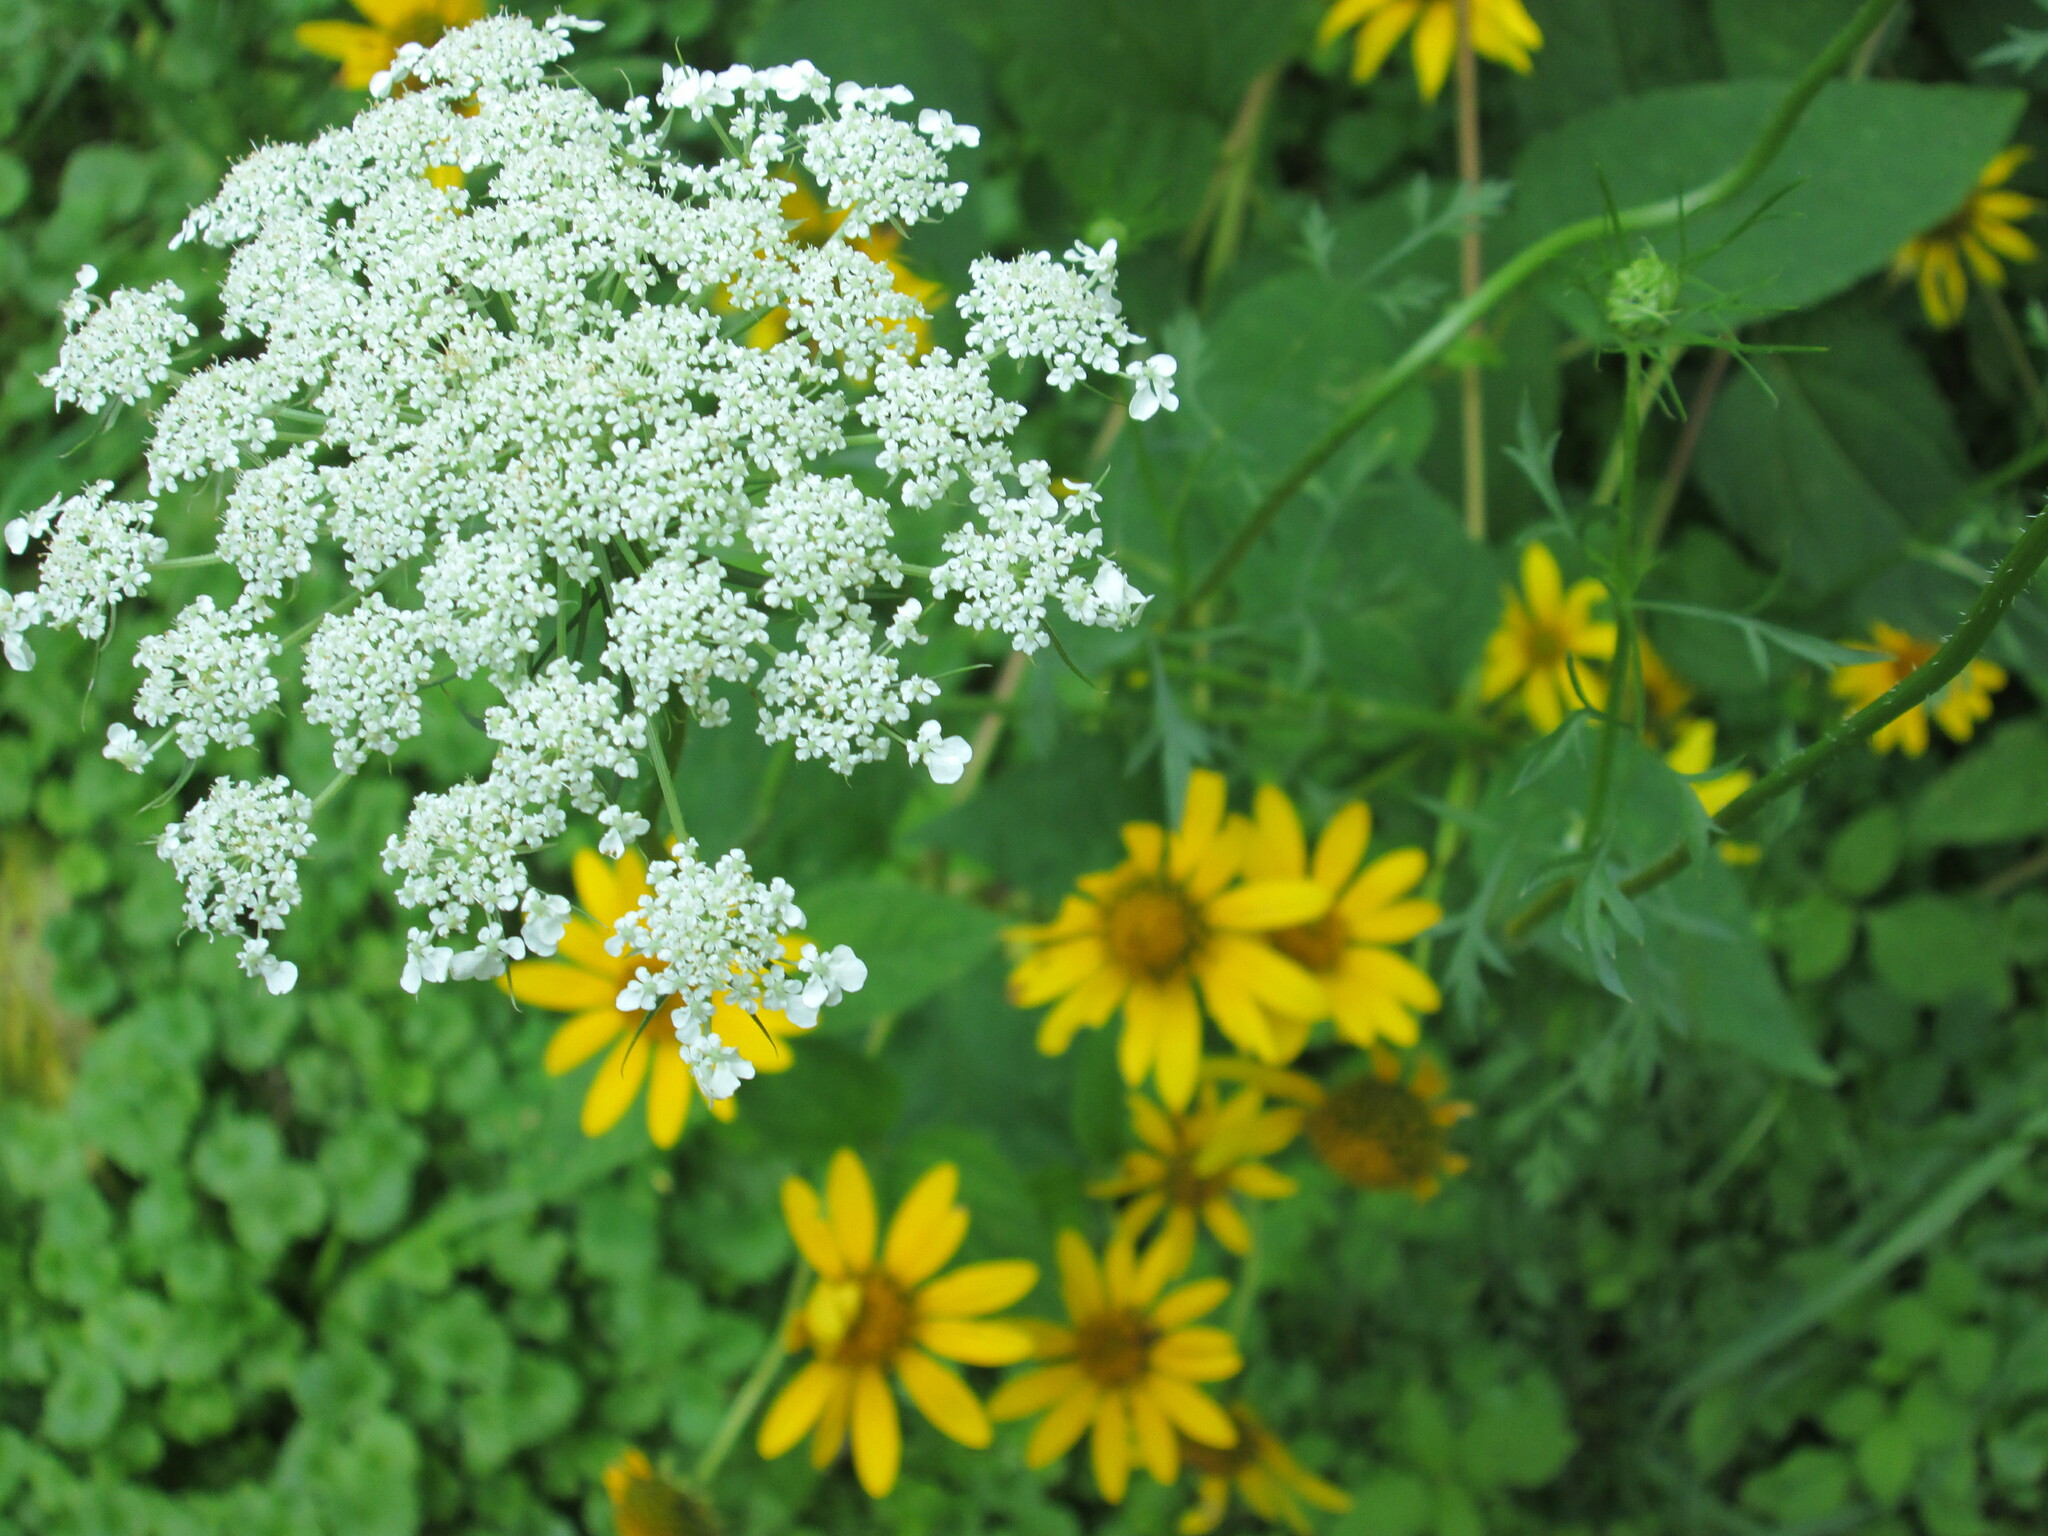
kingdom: Plantae
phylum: Tracheophyta
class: Magnoliopsida
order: Apiales
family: Apiaceae
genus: Daucus
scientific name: Daucus carota
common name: Wild carrot
